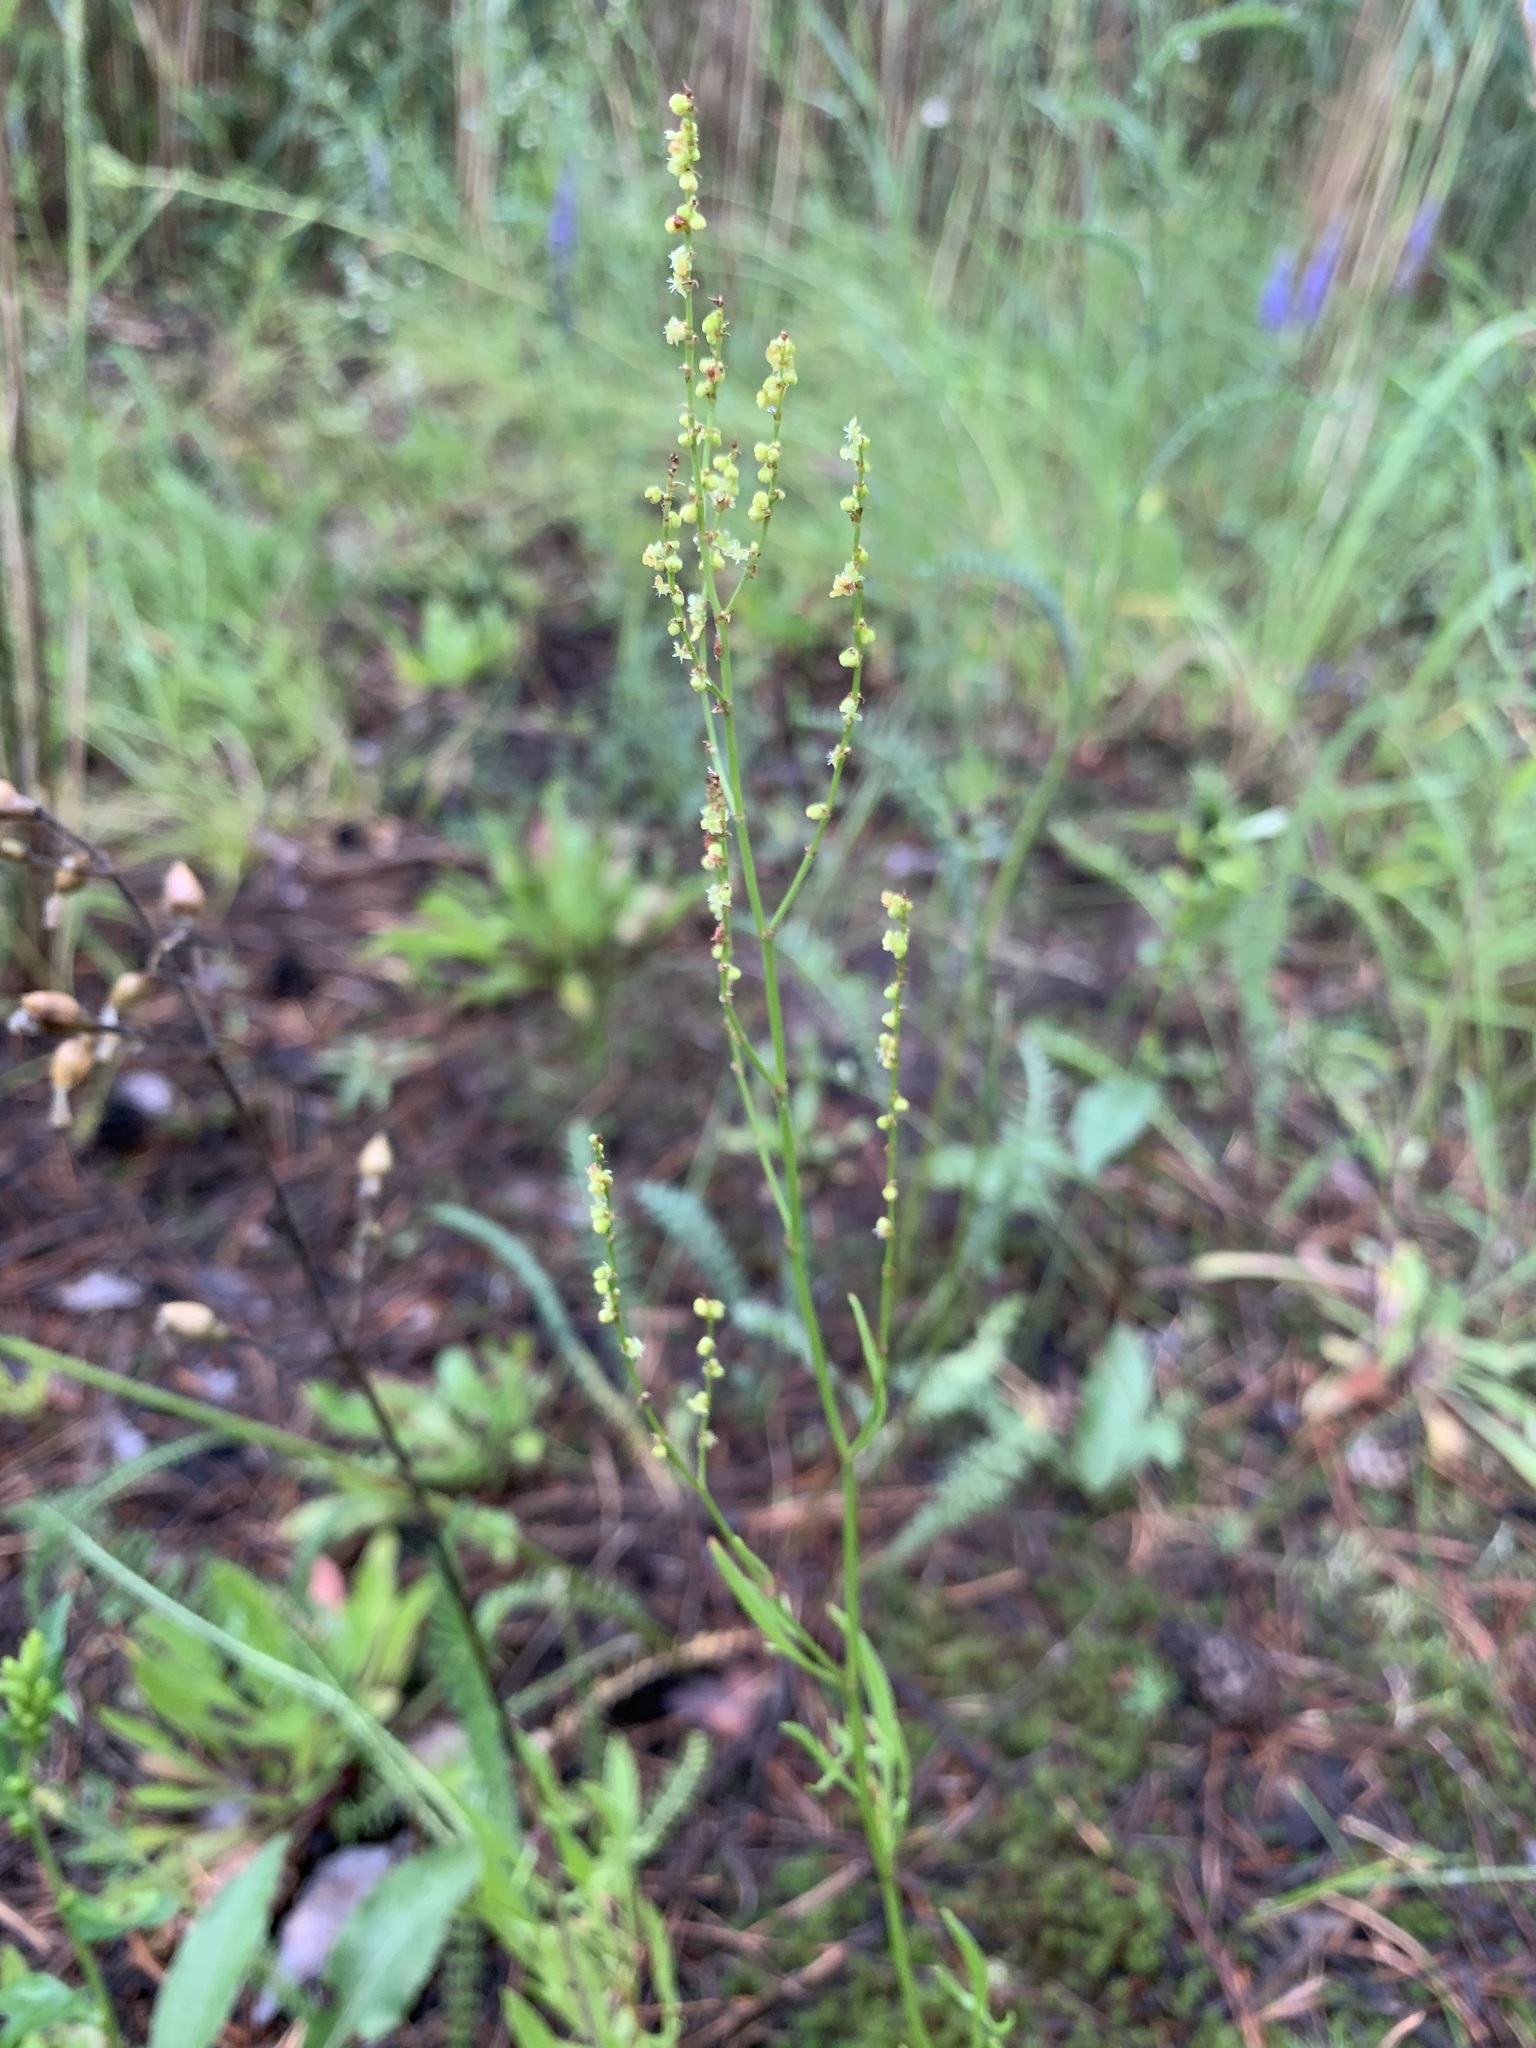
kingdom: Plantae
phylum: Tracheophyta
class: Magnoliopsida
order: Caryophyllales
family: Polygonaceae
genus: Rumex
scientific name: Rumex acetosella
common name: Common sheep sorrel
